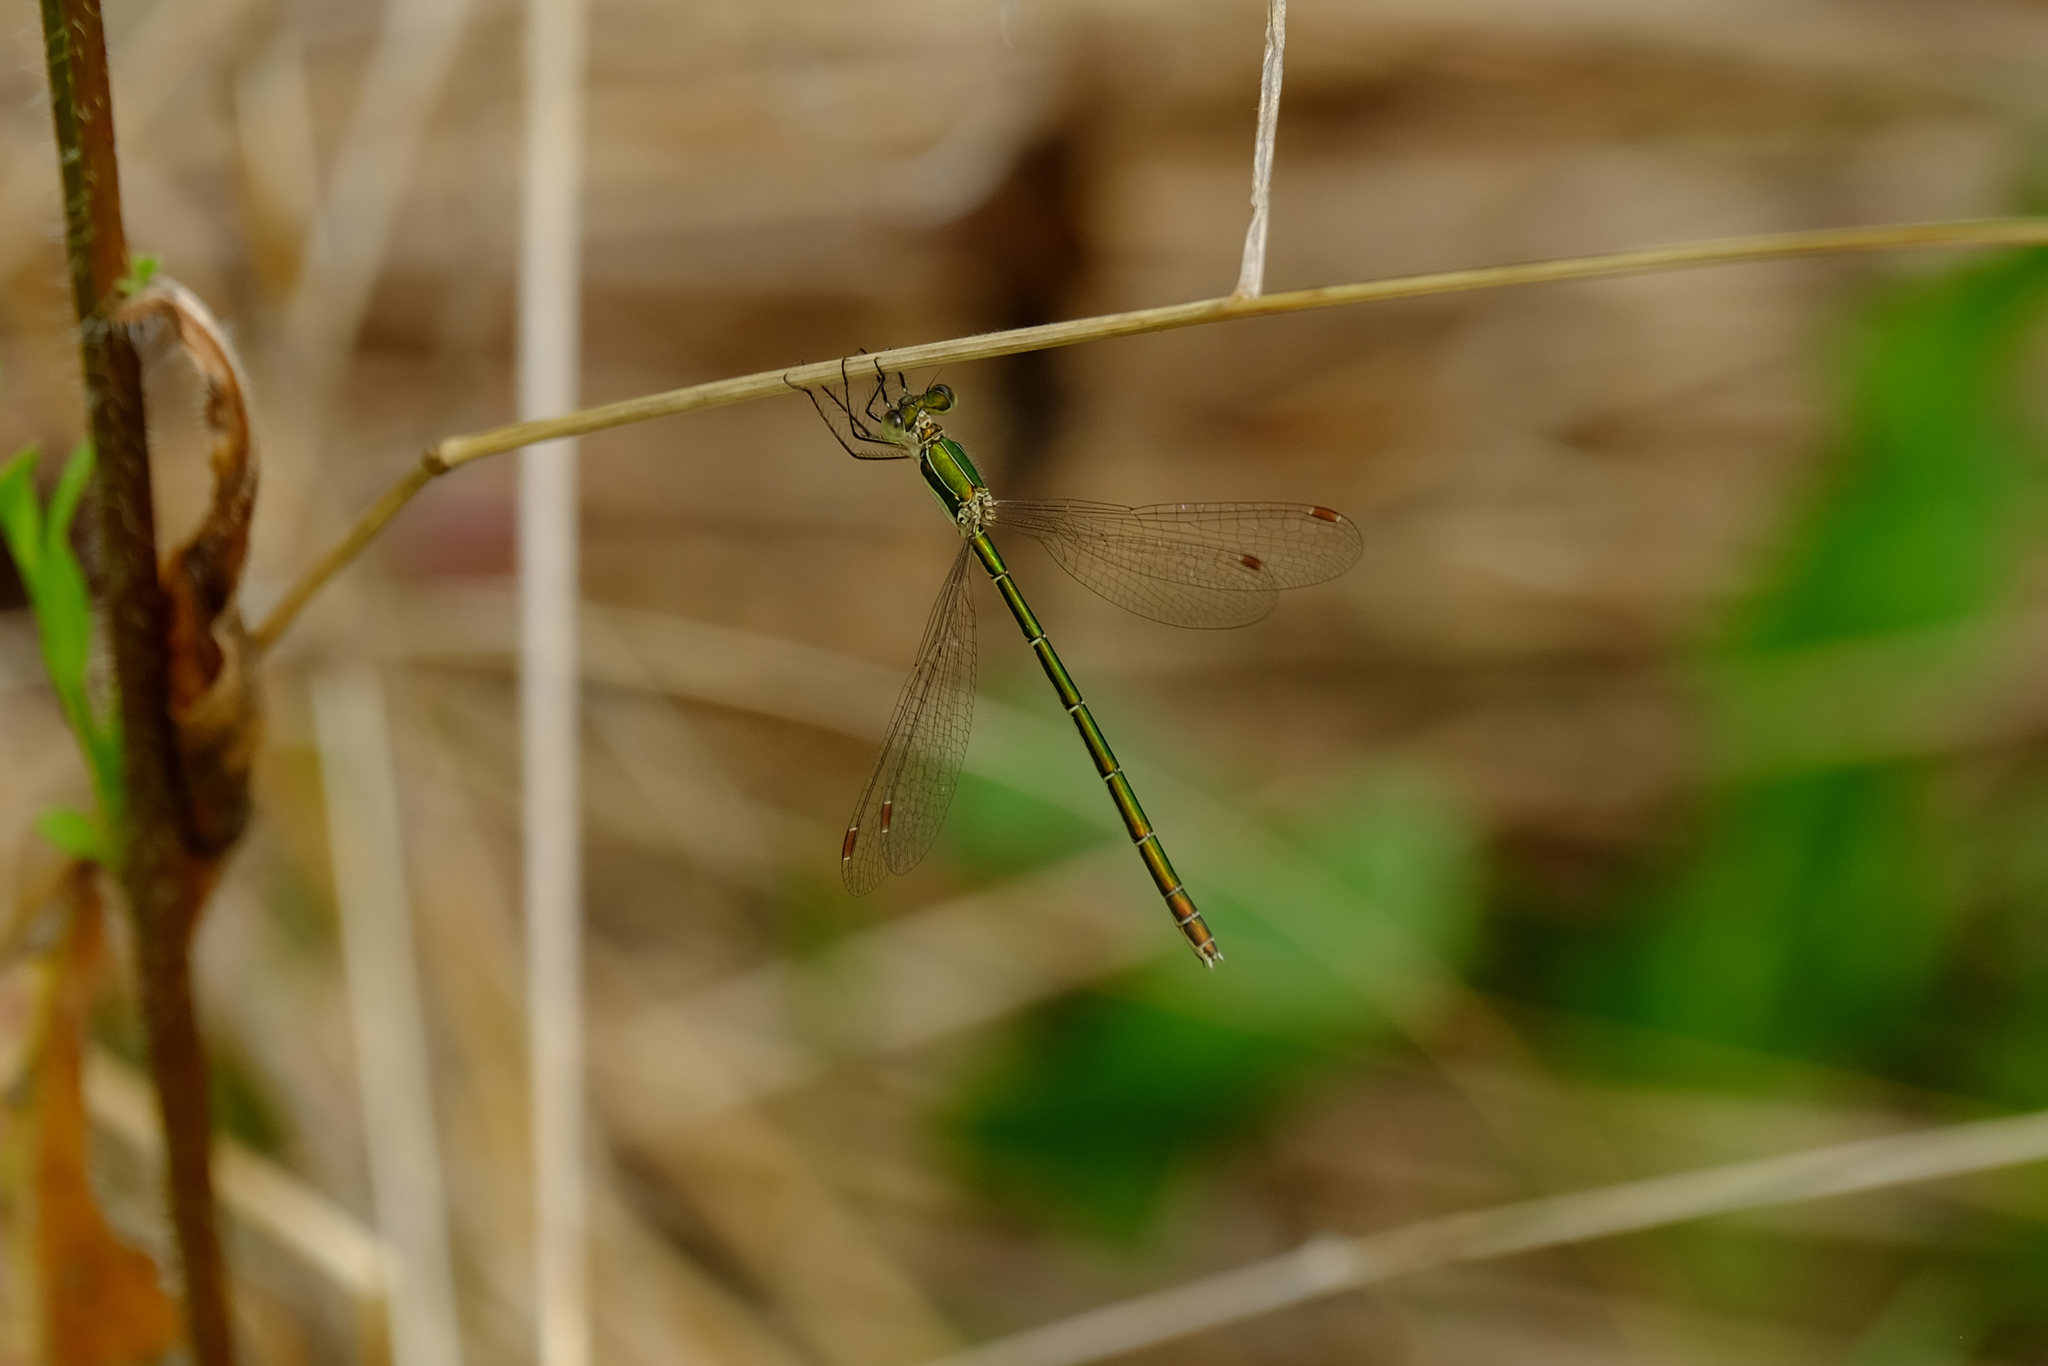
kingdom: Animalia
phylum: Arthropoda
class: Insecta
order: Odonata
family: Lestidae
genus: Lestes
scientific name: Lestes virens
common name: Small emerald spreadwing
